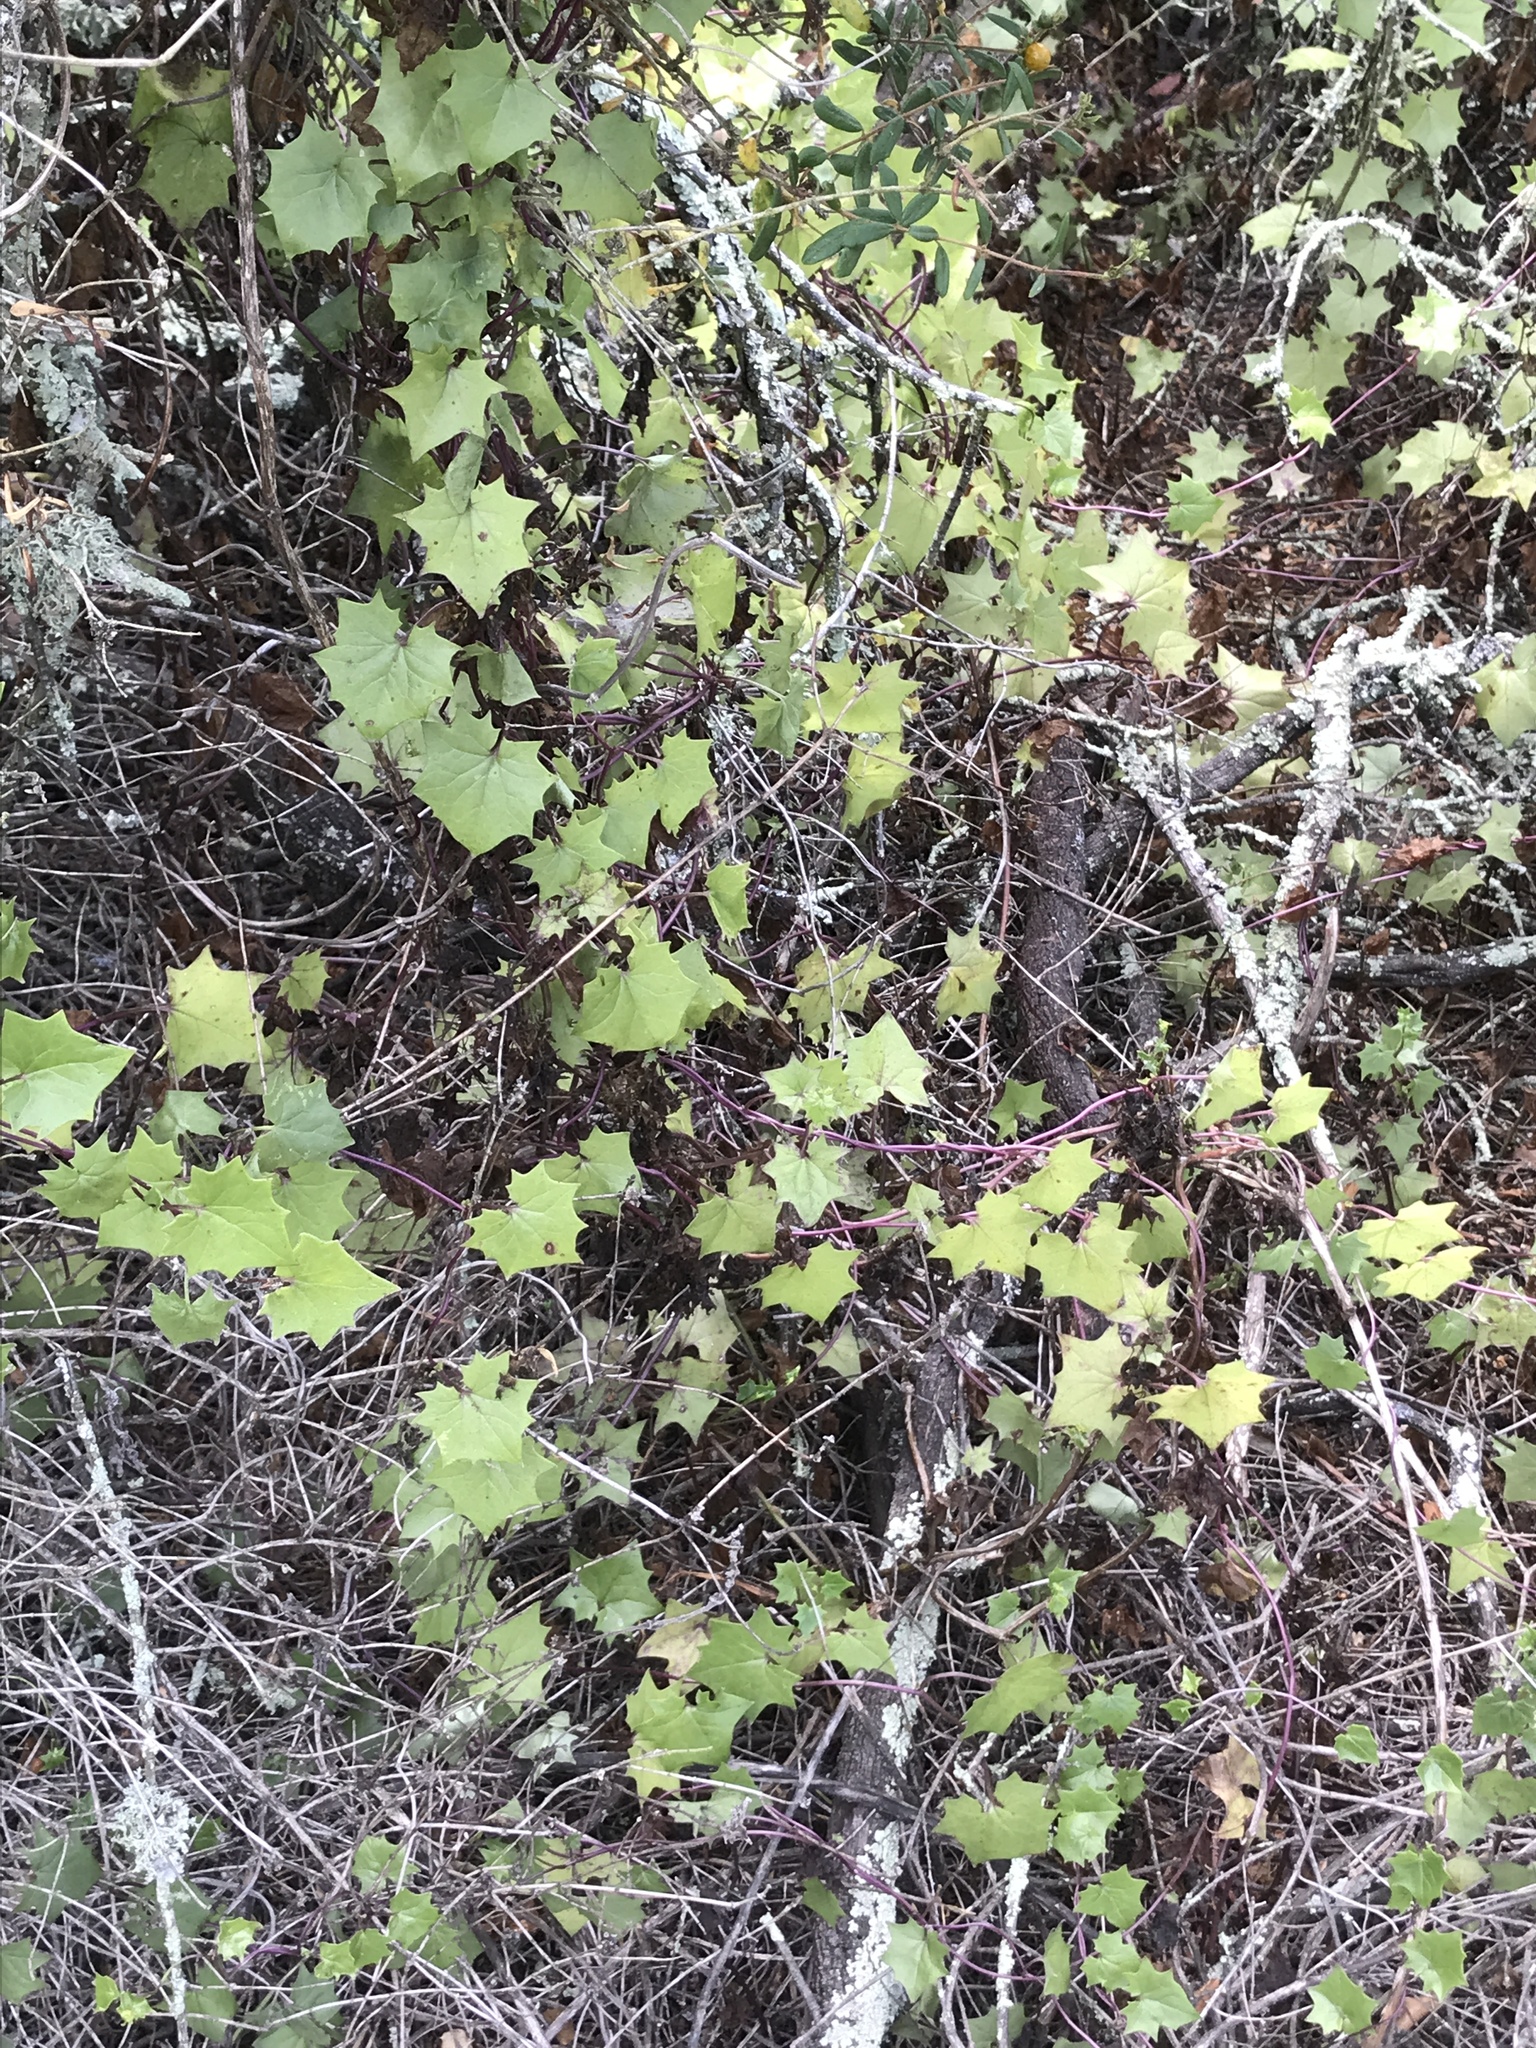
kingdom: Plantae
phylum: Tracheophyta
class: Magnoliopsida
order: Asterales
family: Asteraceae
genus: Delairea
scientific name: Delairea odorata
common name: Cape-ivy
